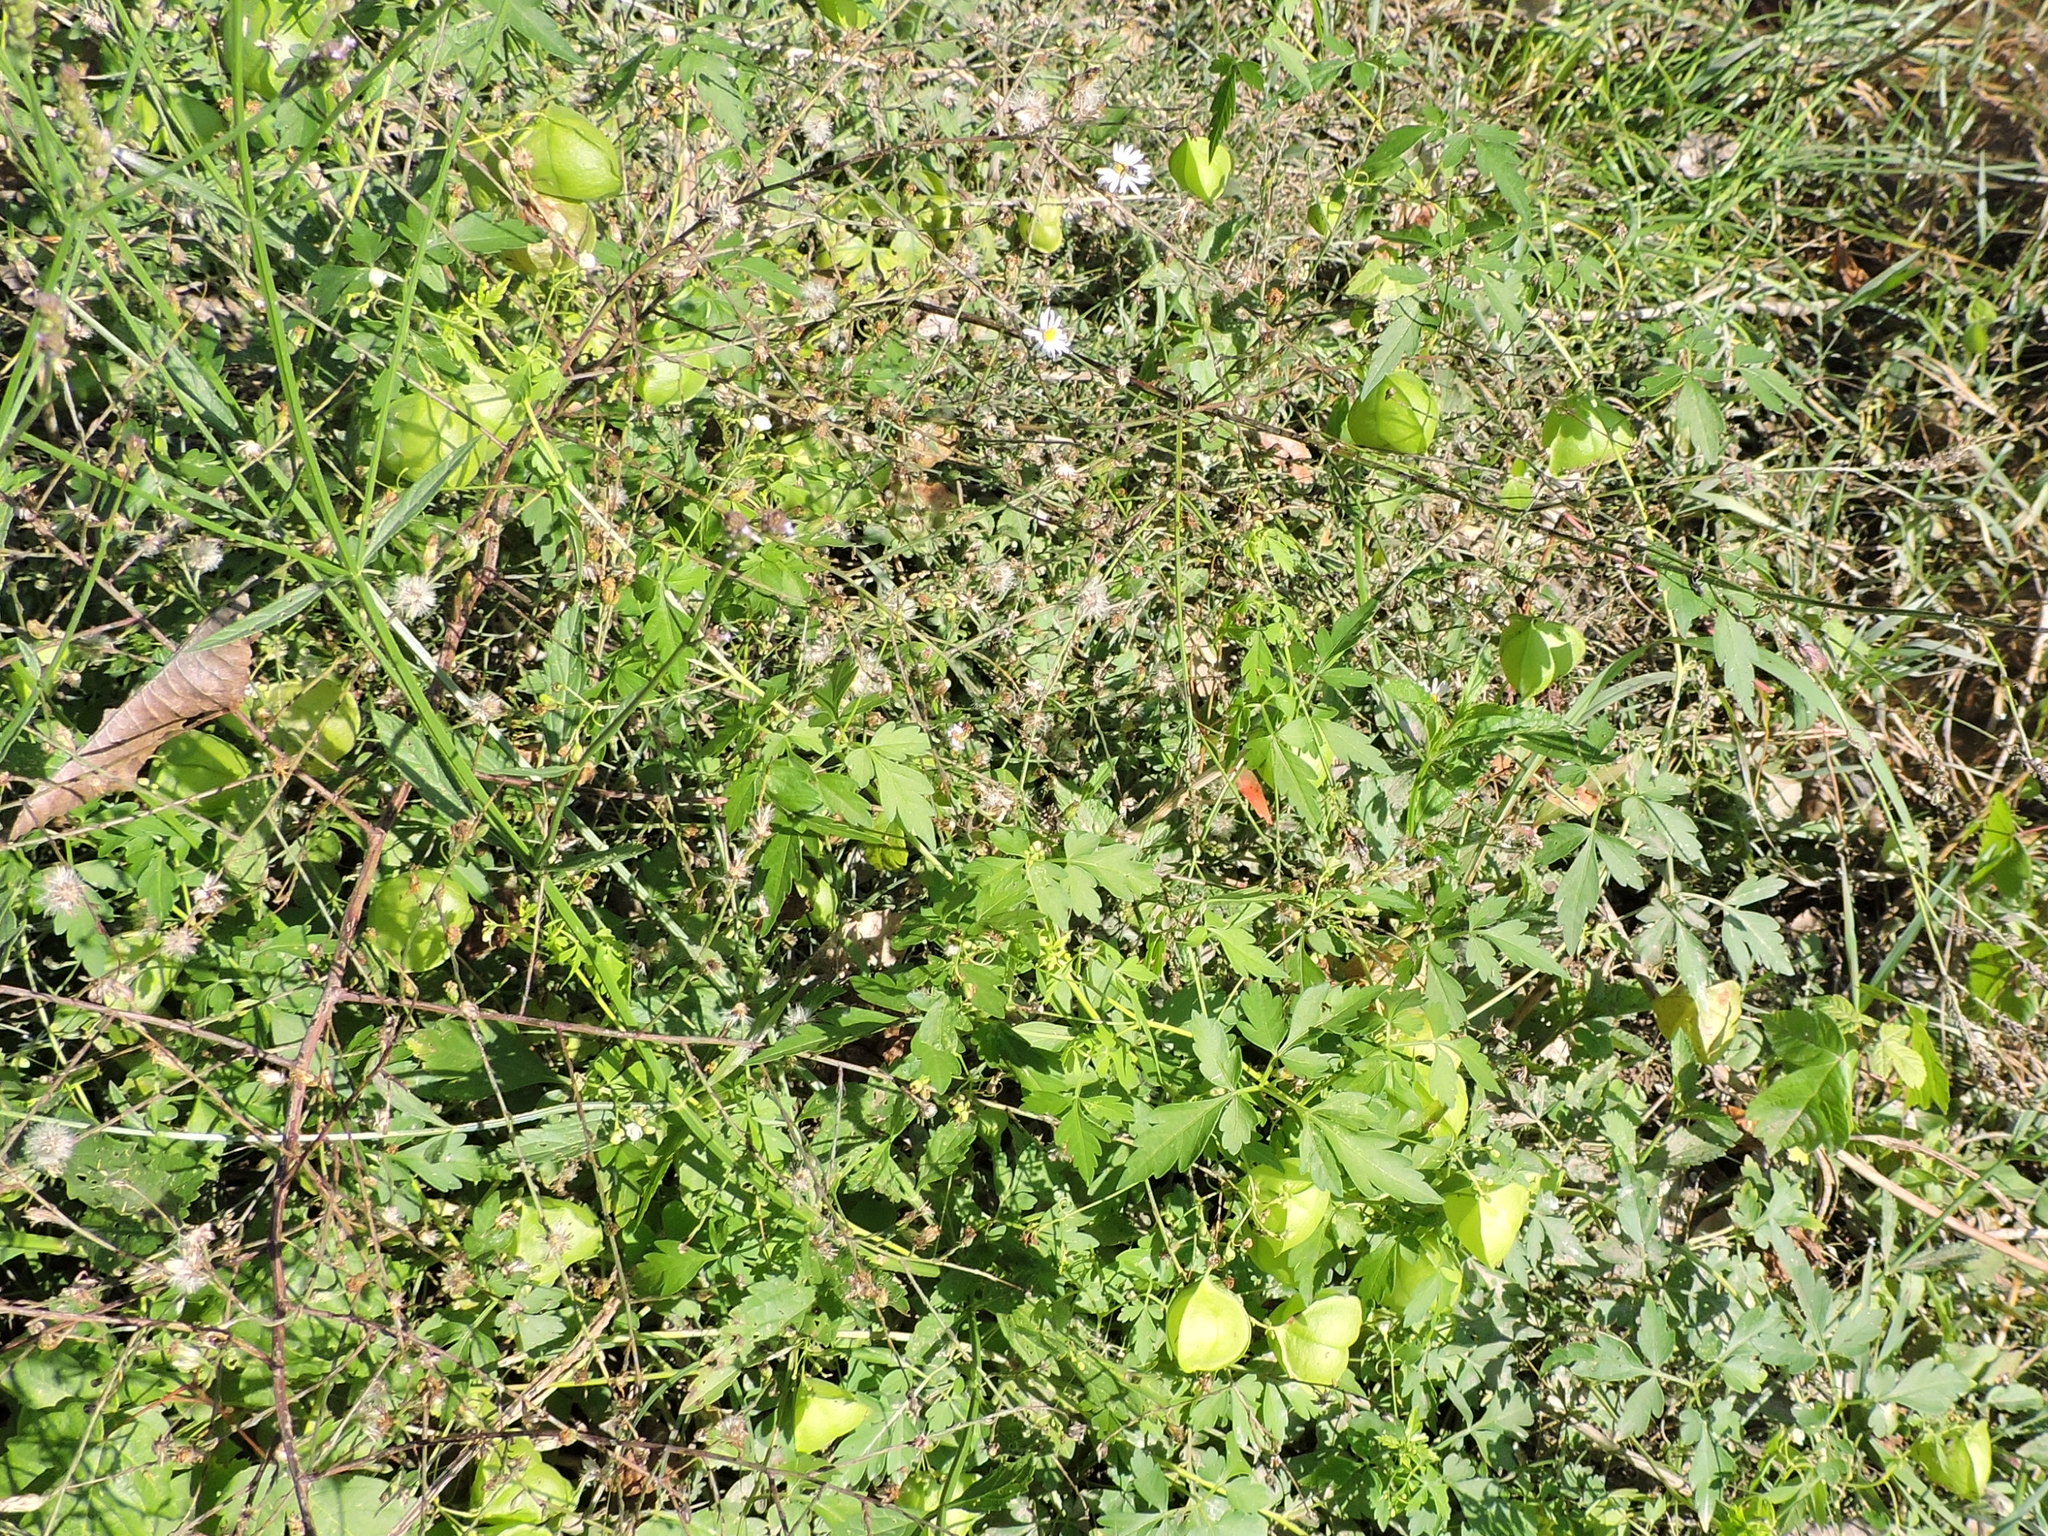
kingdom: Plantae
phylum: Tracheophyta
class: Magnoliopsida
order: Sapindales
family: Sapindaceae
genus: Cardiospermum
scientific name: Cardiospermum halicacabum
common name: Balloon vine
